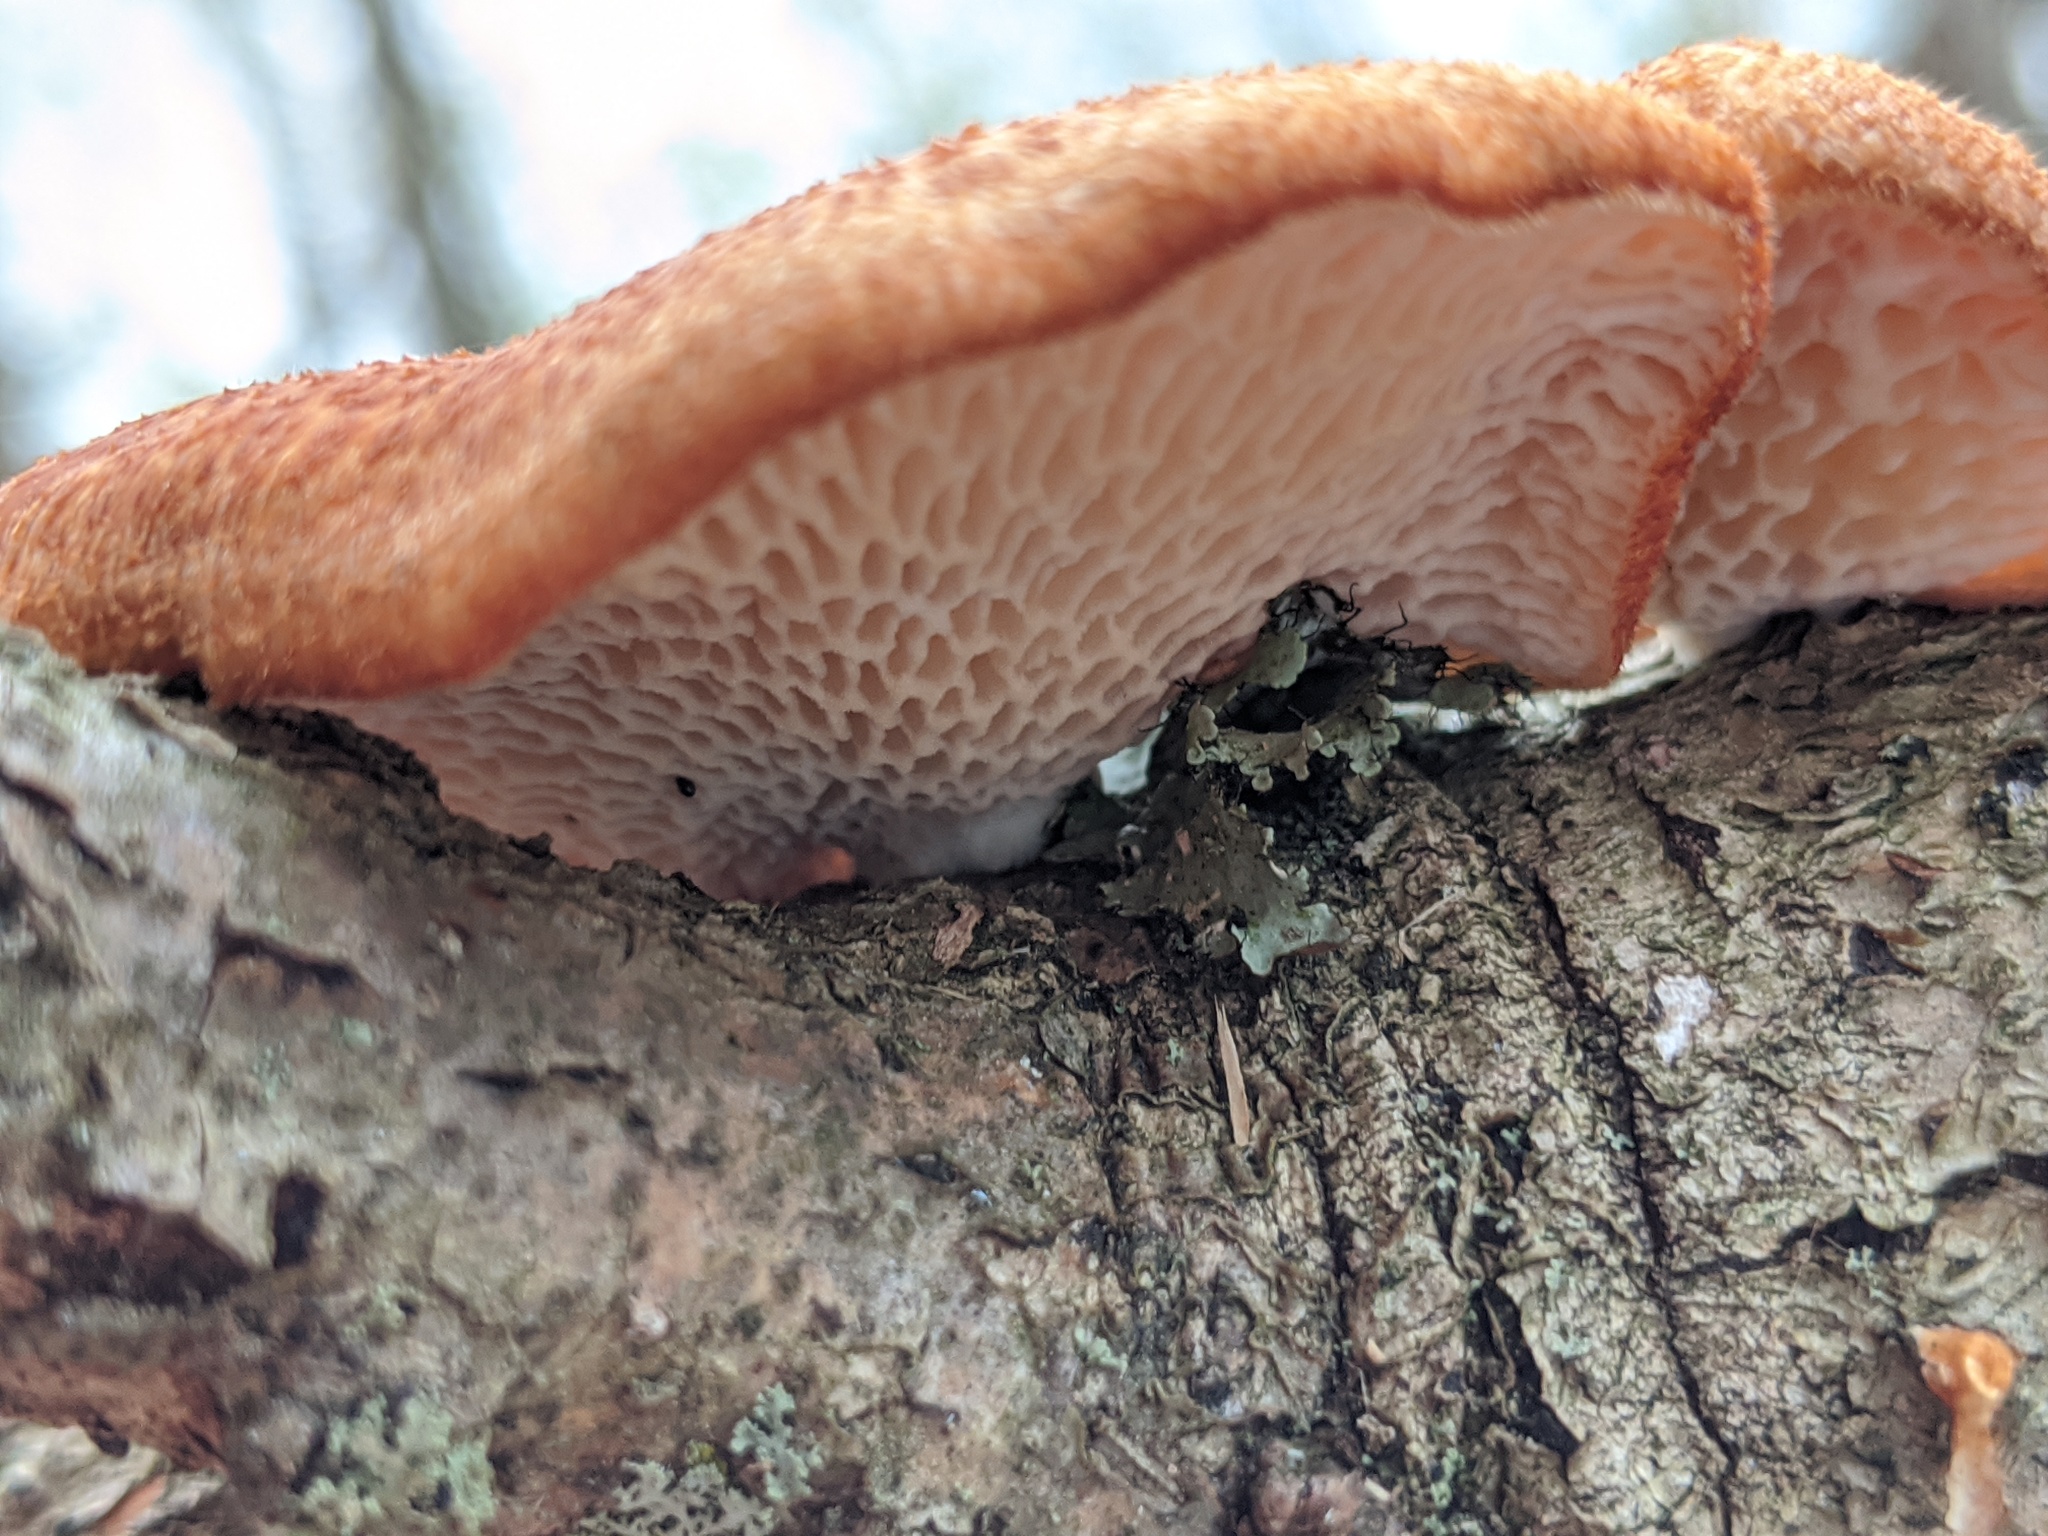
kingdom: Fungi
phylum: Basidiomycota
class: Agaricomycetes
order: Polyporales
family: Polyporaceae
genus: Neofavolus
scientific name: Neofavolus alveolaris
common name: Hexagonal-pored polypore
